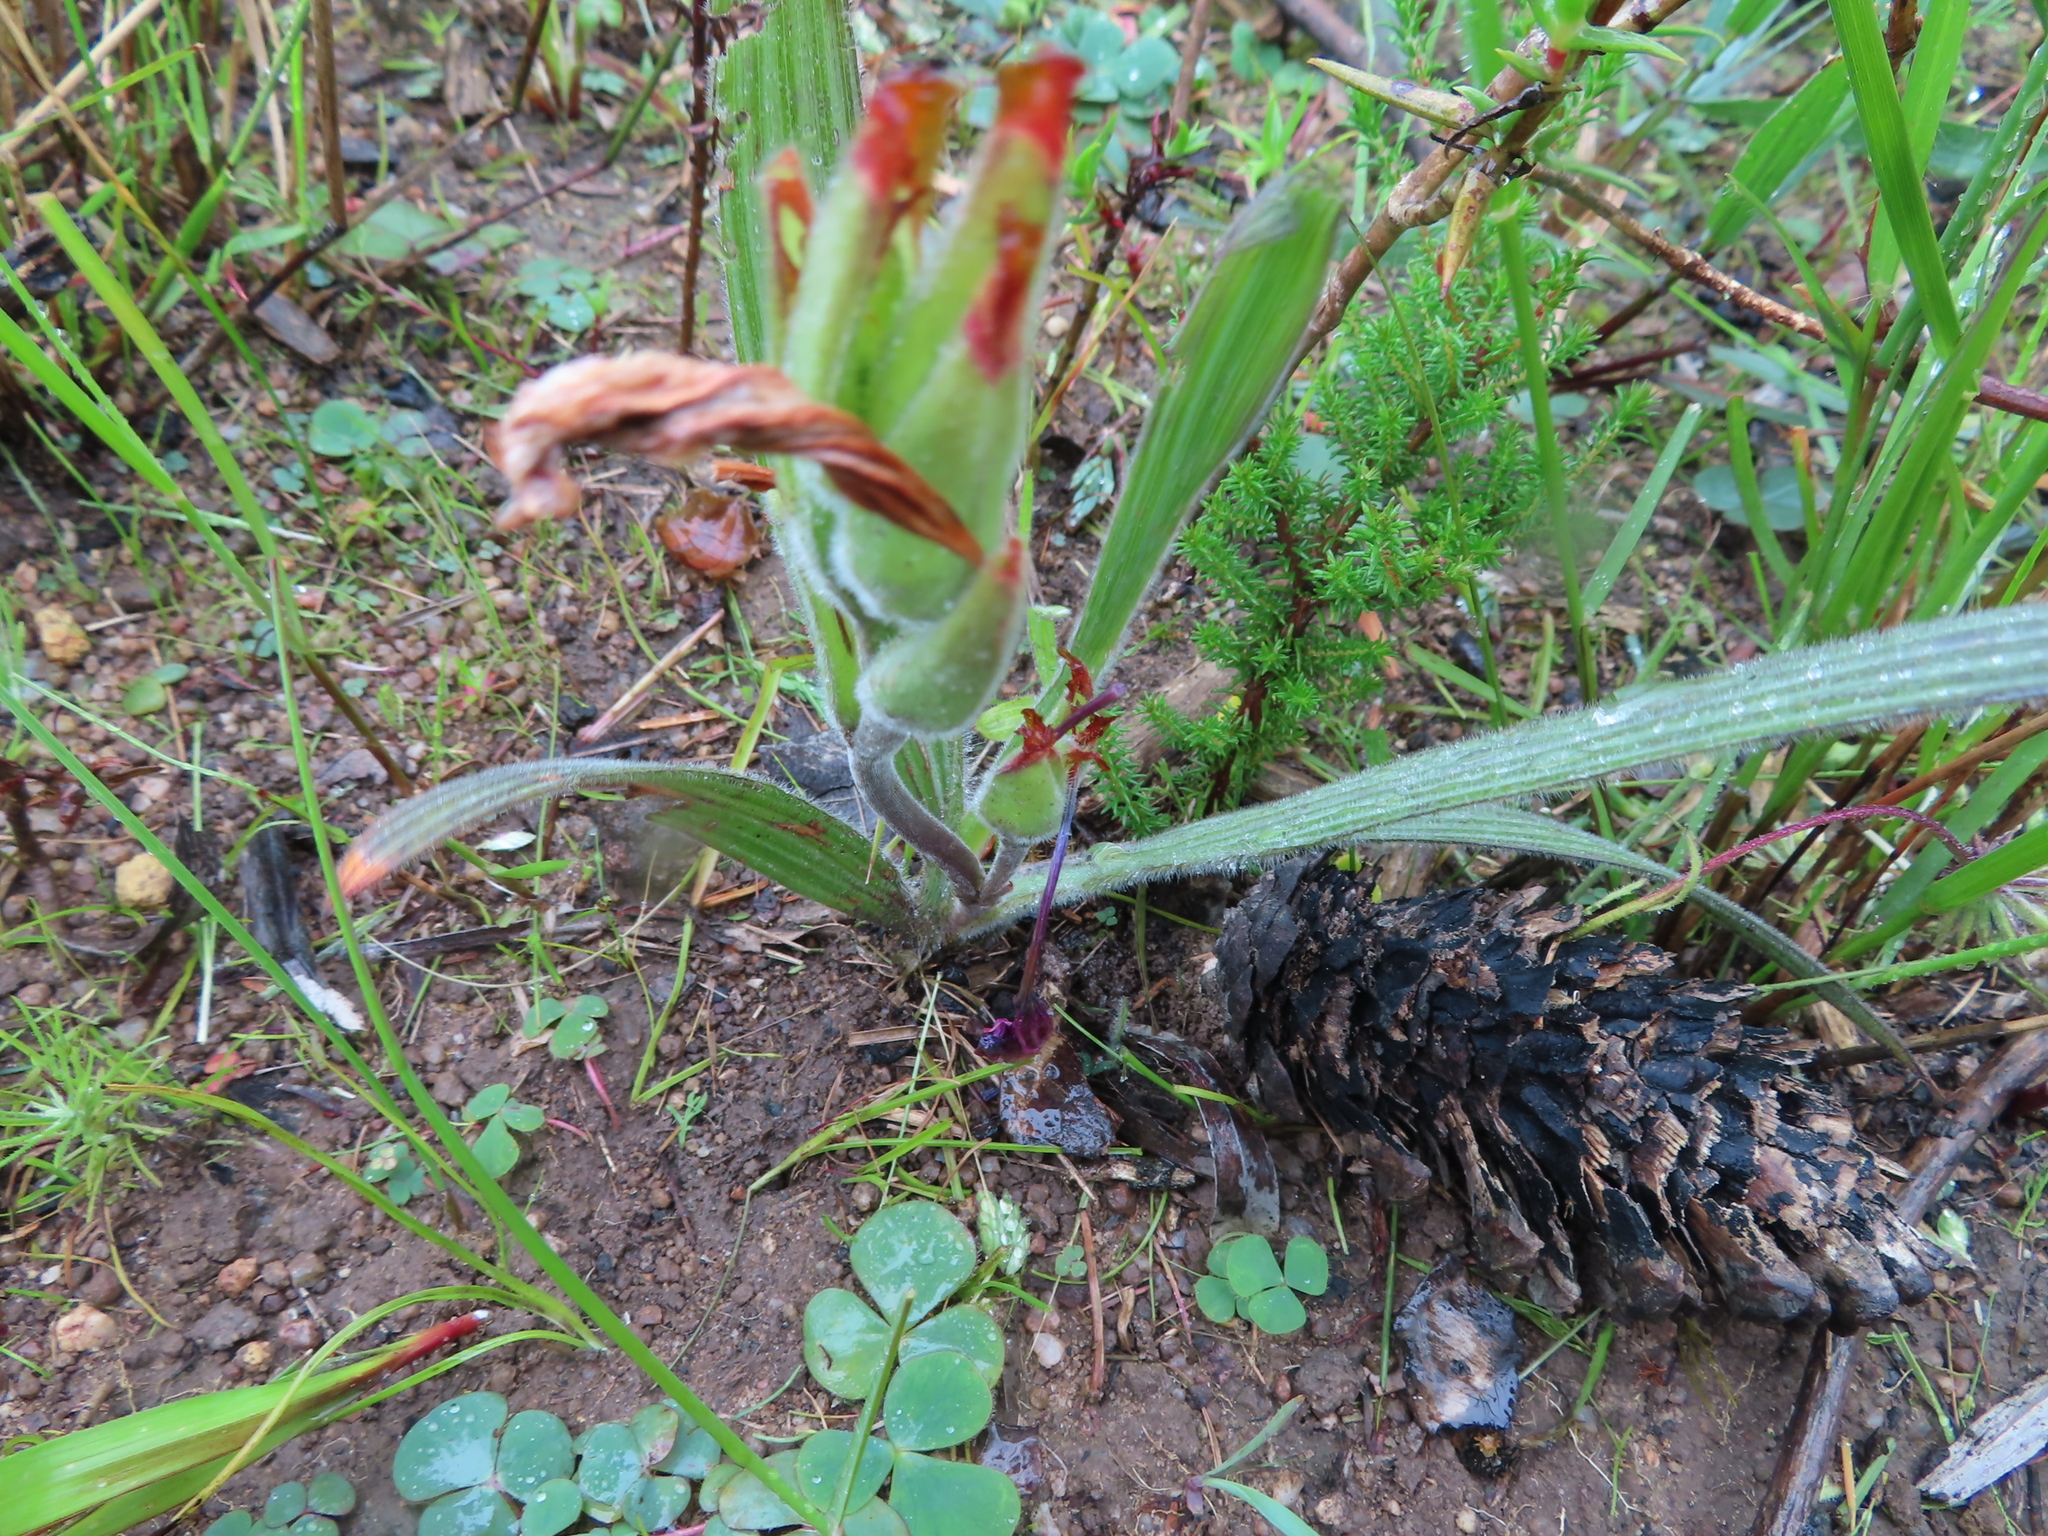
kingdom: Plantae
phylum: Tracheophyta
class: Liliopsida
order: Asparagales
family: Iridaceae
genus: Babiana
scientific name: Babiana villosula
